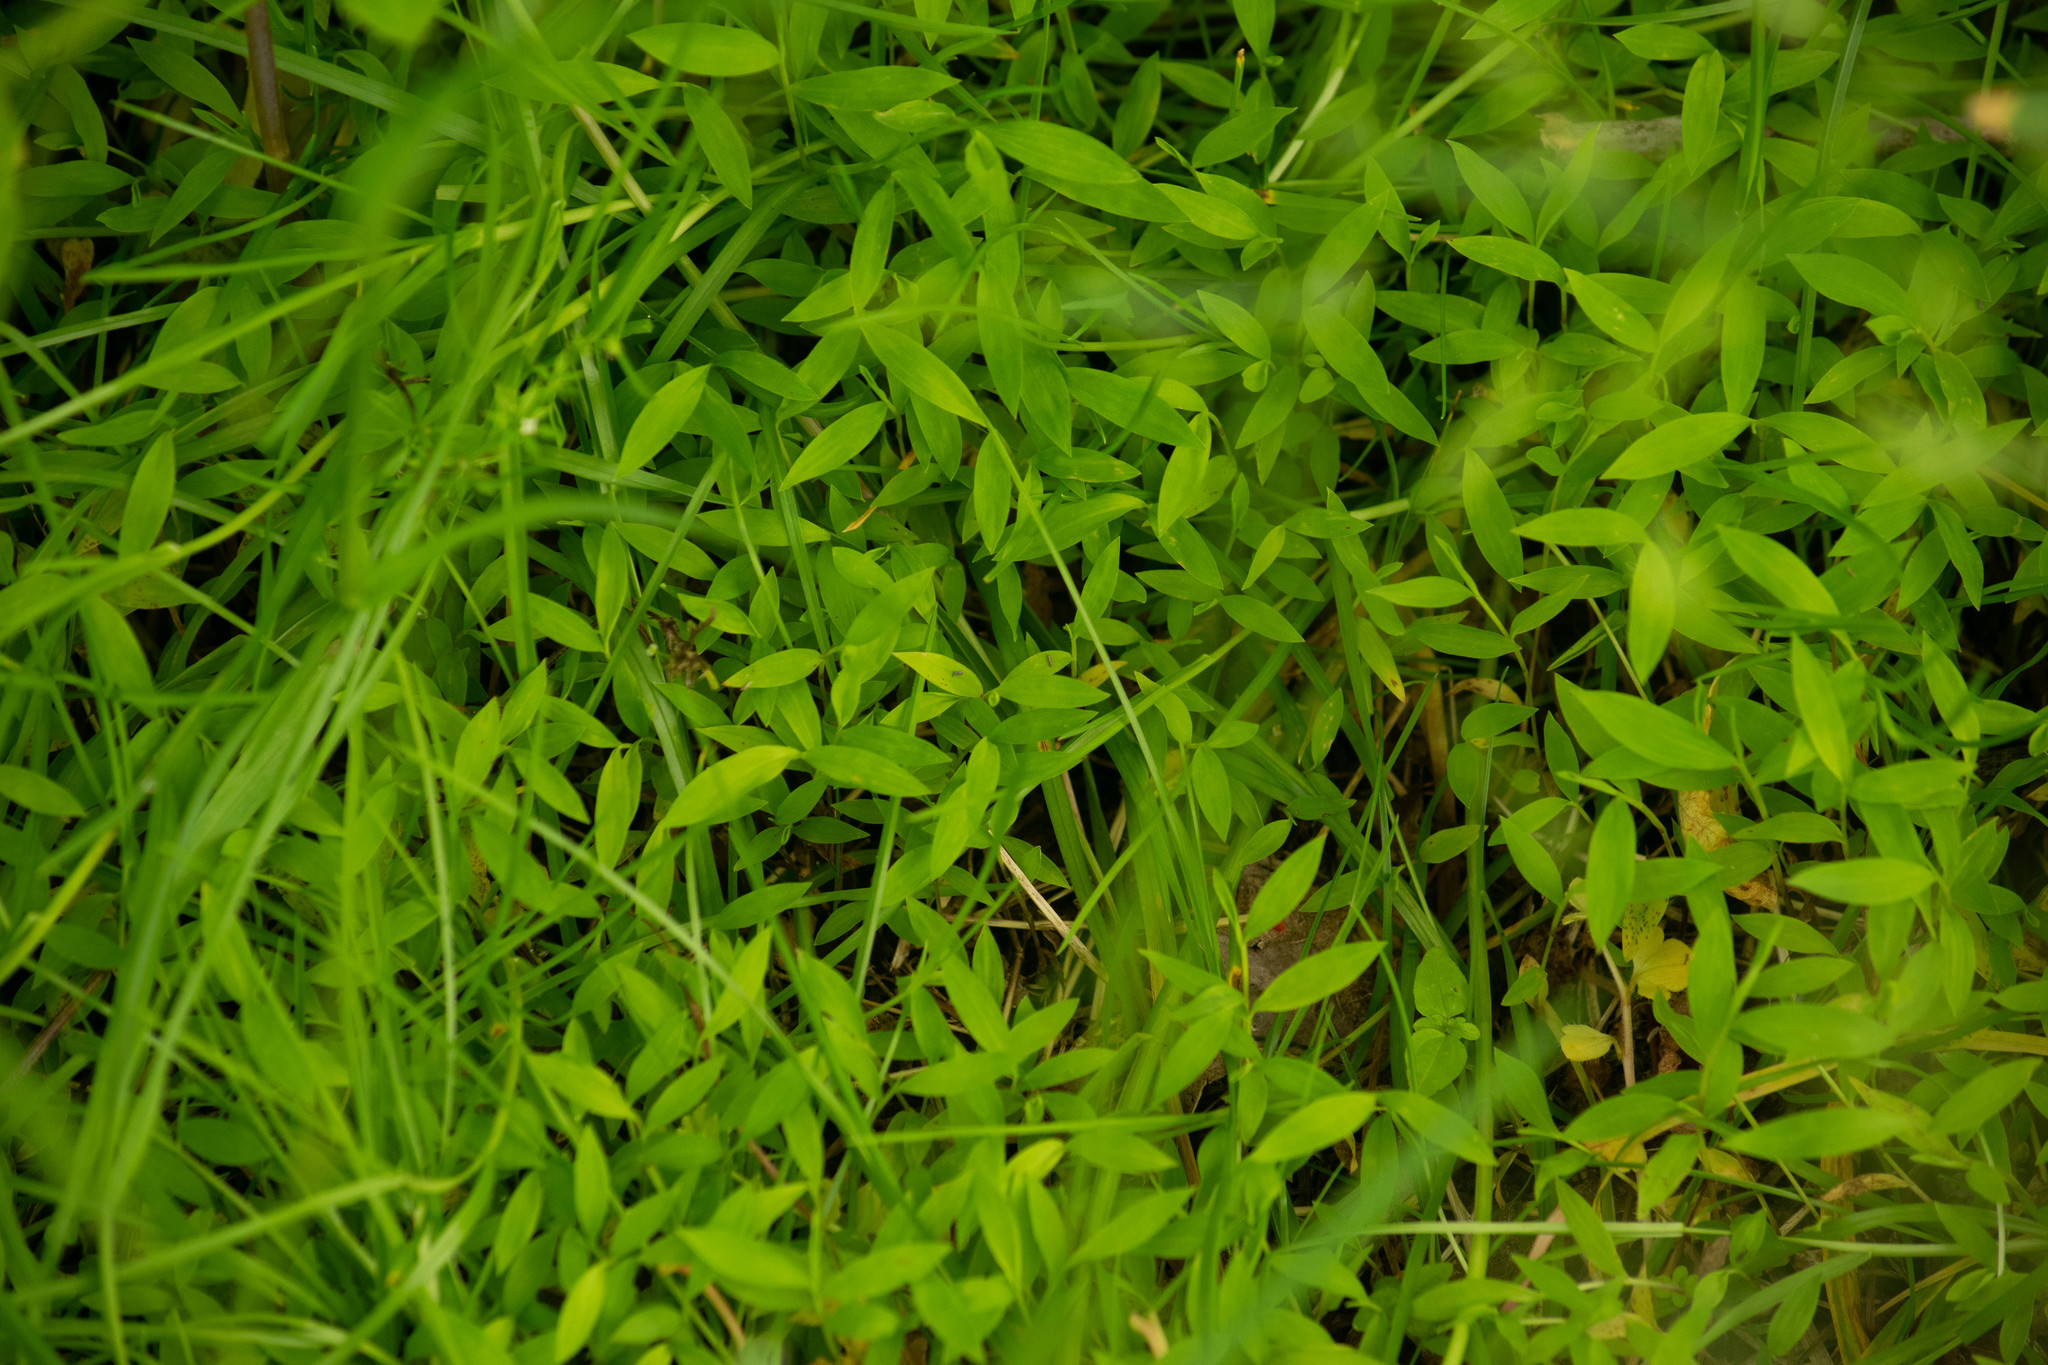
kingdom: Plantae
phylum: Tracheophyta
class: Liliopsida
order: Poales
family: Poaceae
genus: Microstegium
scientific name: Microstegium vimineum
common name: Japanese stiltgrass
